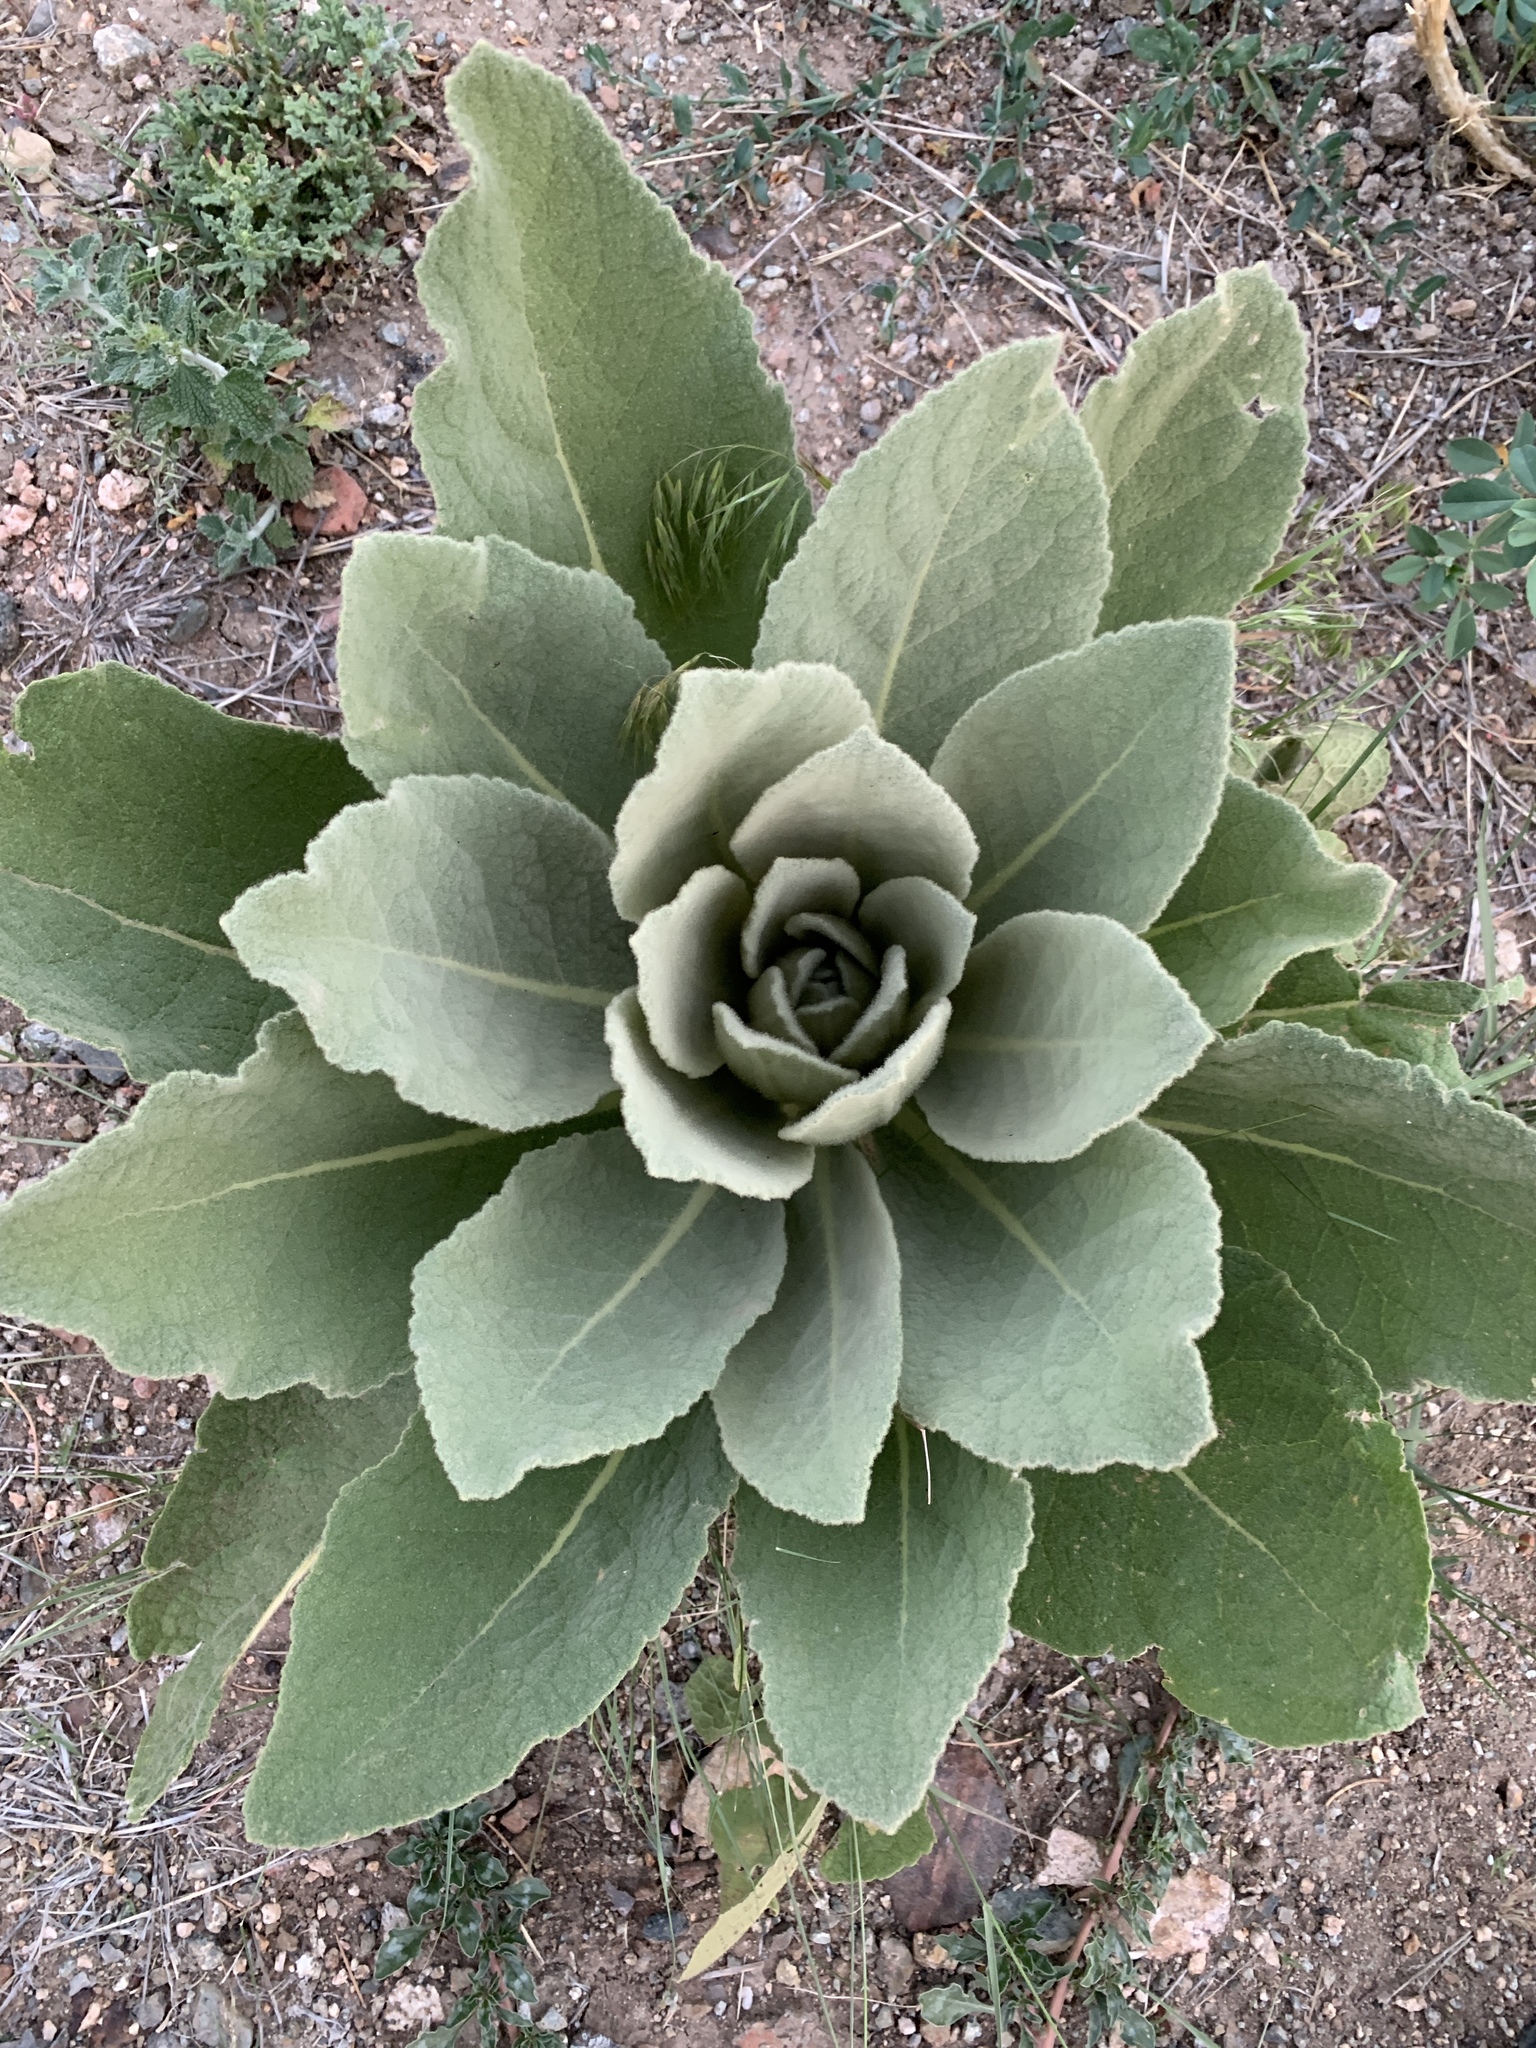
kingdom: Plantae
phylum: Tracheophyta
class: Magnoliopsida
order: Lamiales
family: Scrophulariaceae
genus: Verbascum
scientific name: Verbascum thapsus
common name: Common mullein
